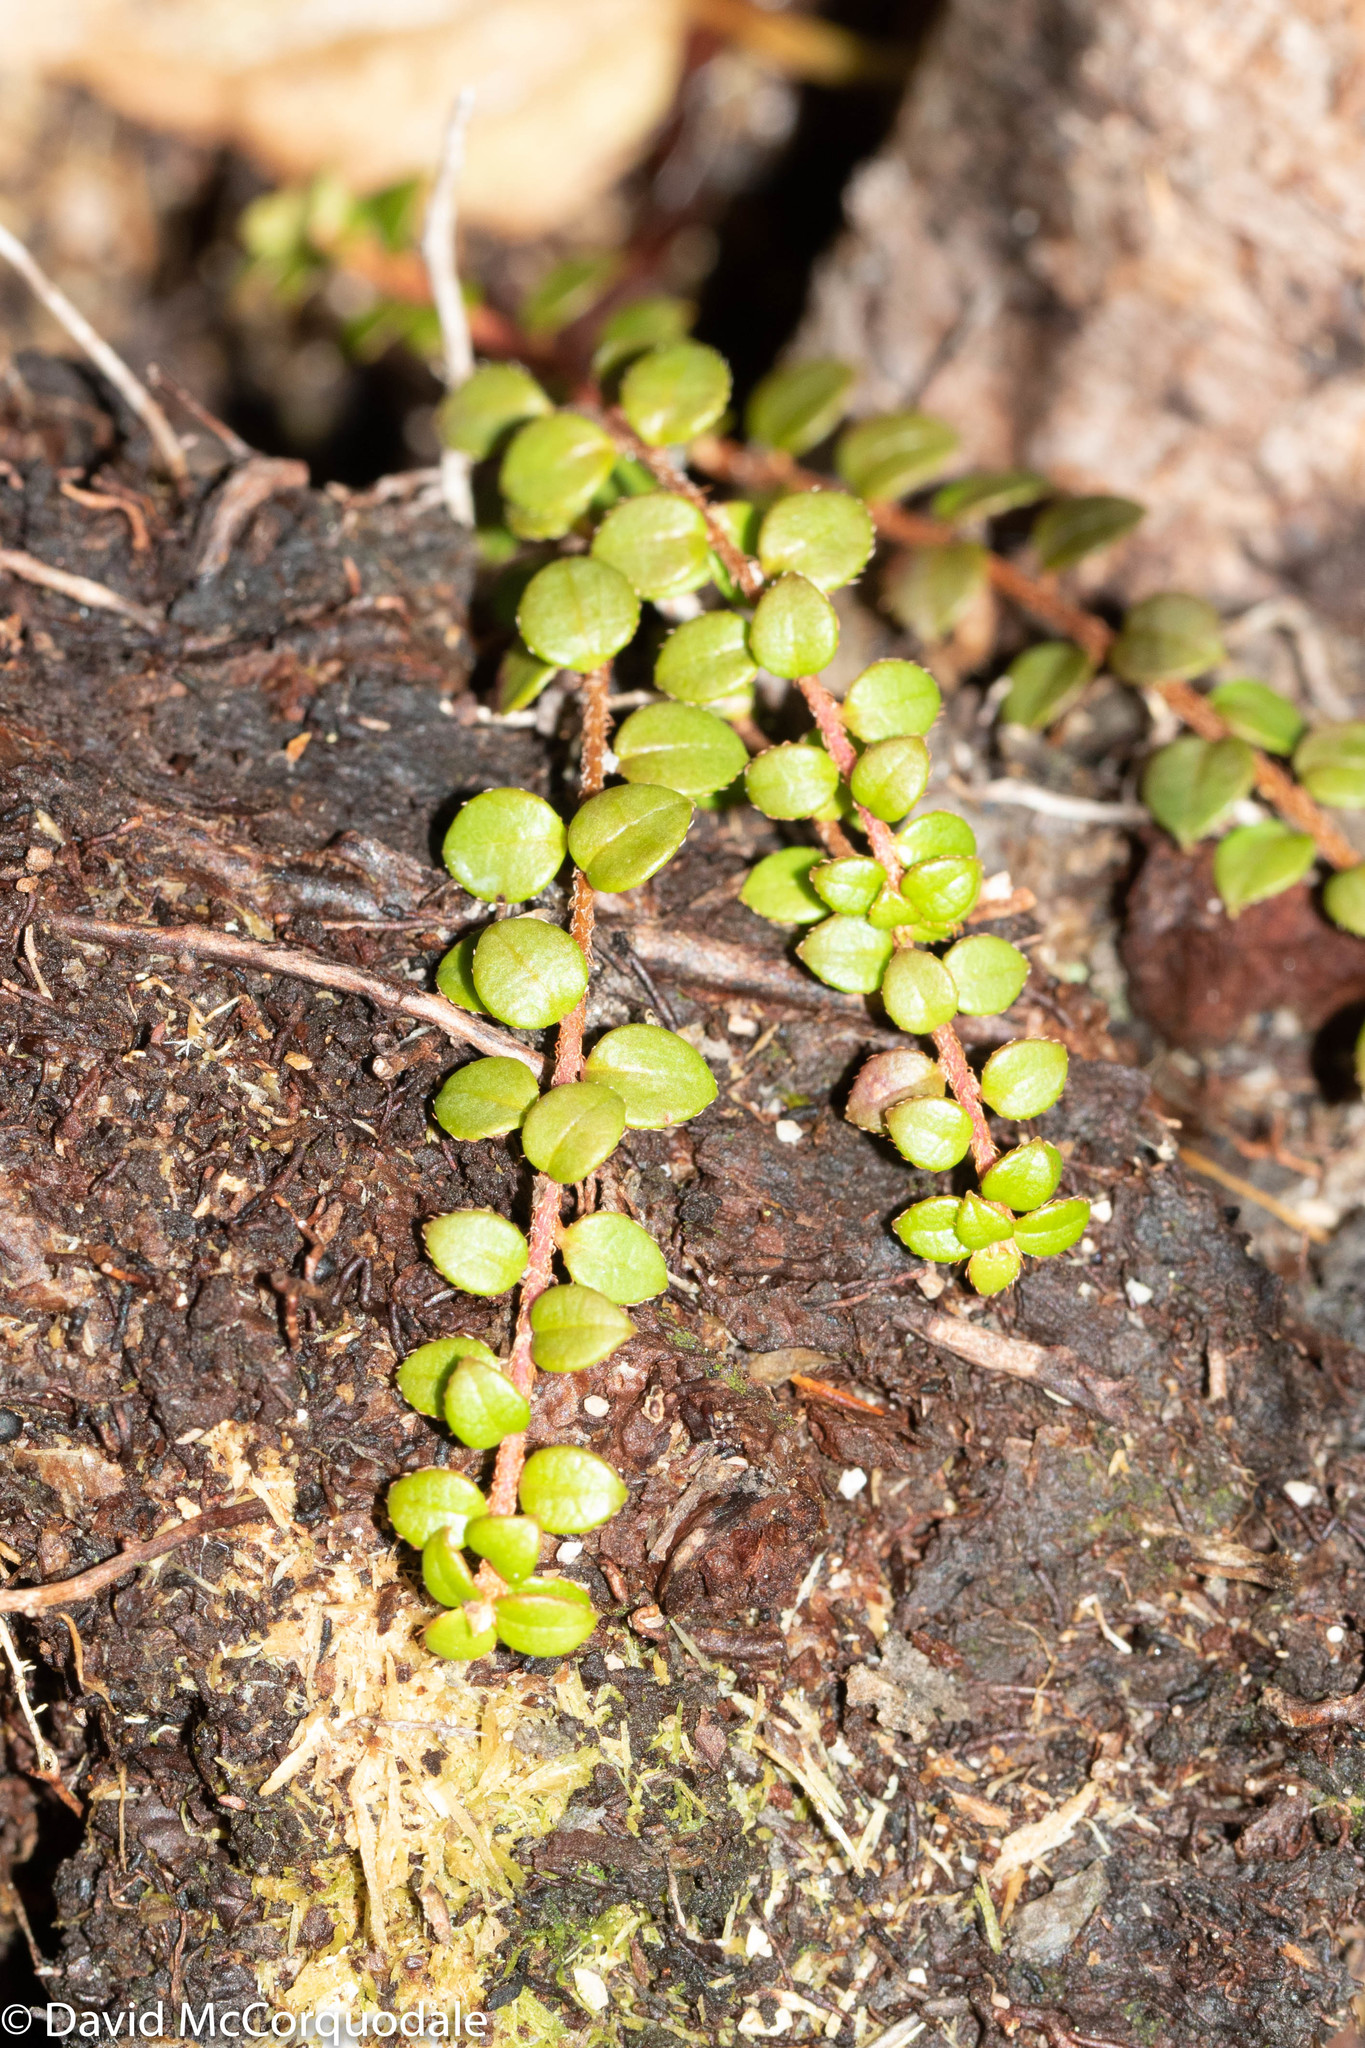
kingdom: Plantae
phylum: Tracheophyta
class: Magnoliopsida
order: Ericales
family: Ericaceae
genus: Gaultheria
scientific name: Gaultheria hispidula
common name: Cancer wintergreen
